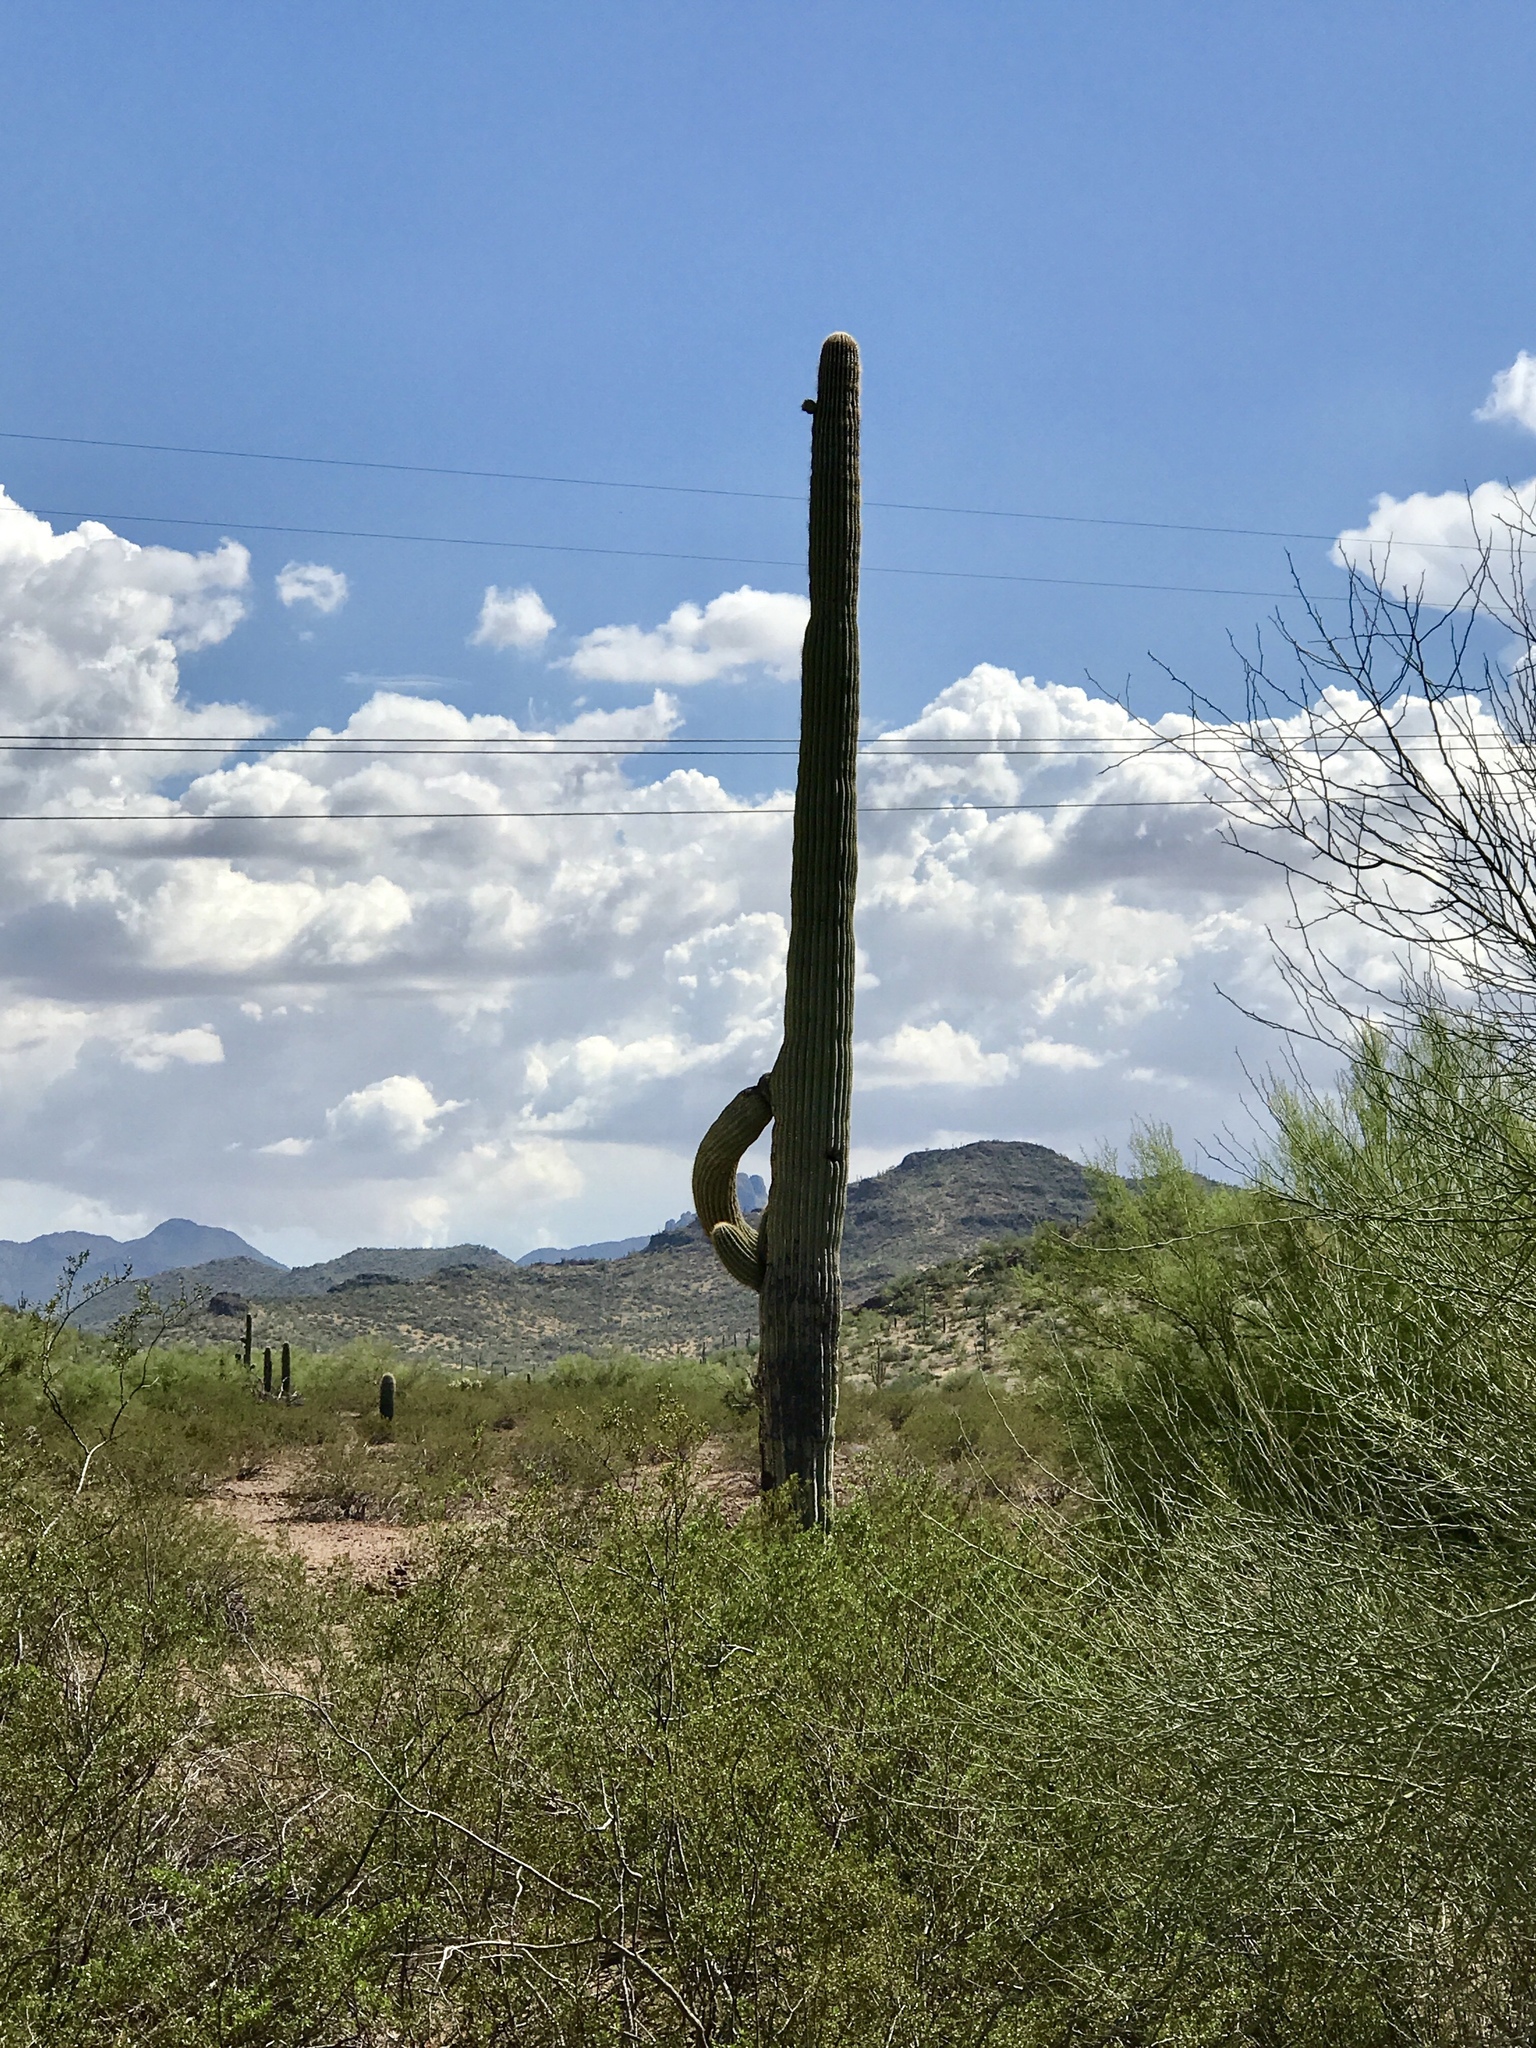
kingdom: Plantae
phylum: Tracheophyta
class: Magnoliopsida
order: Caryophyllales
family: Cactaceae
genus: Carnegiea
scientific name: Carnegiea gigantea
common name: Saguaro
